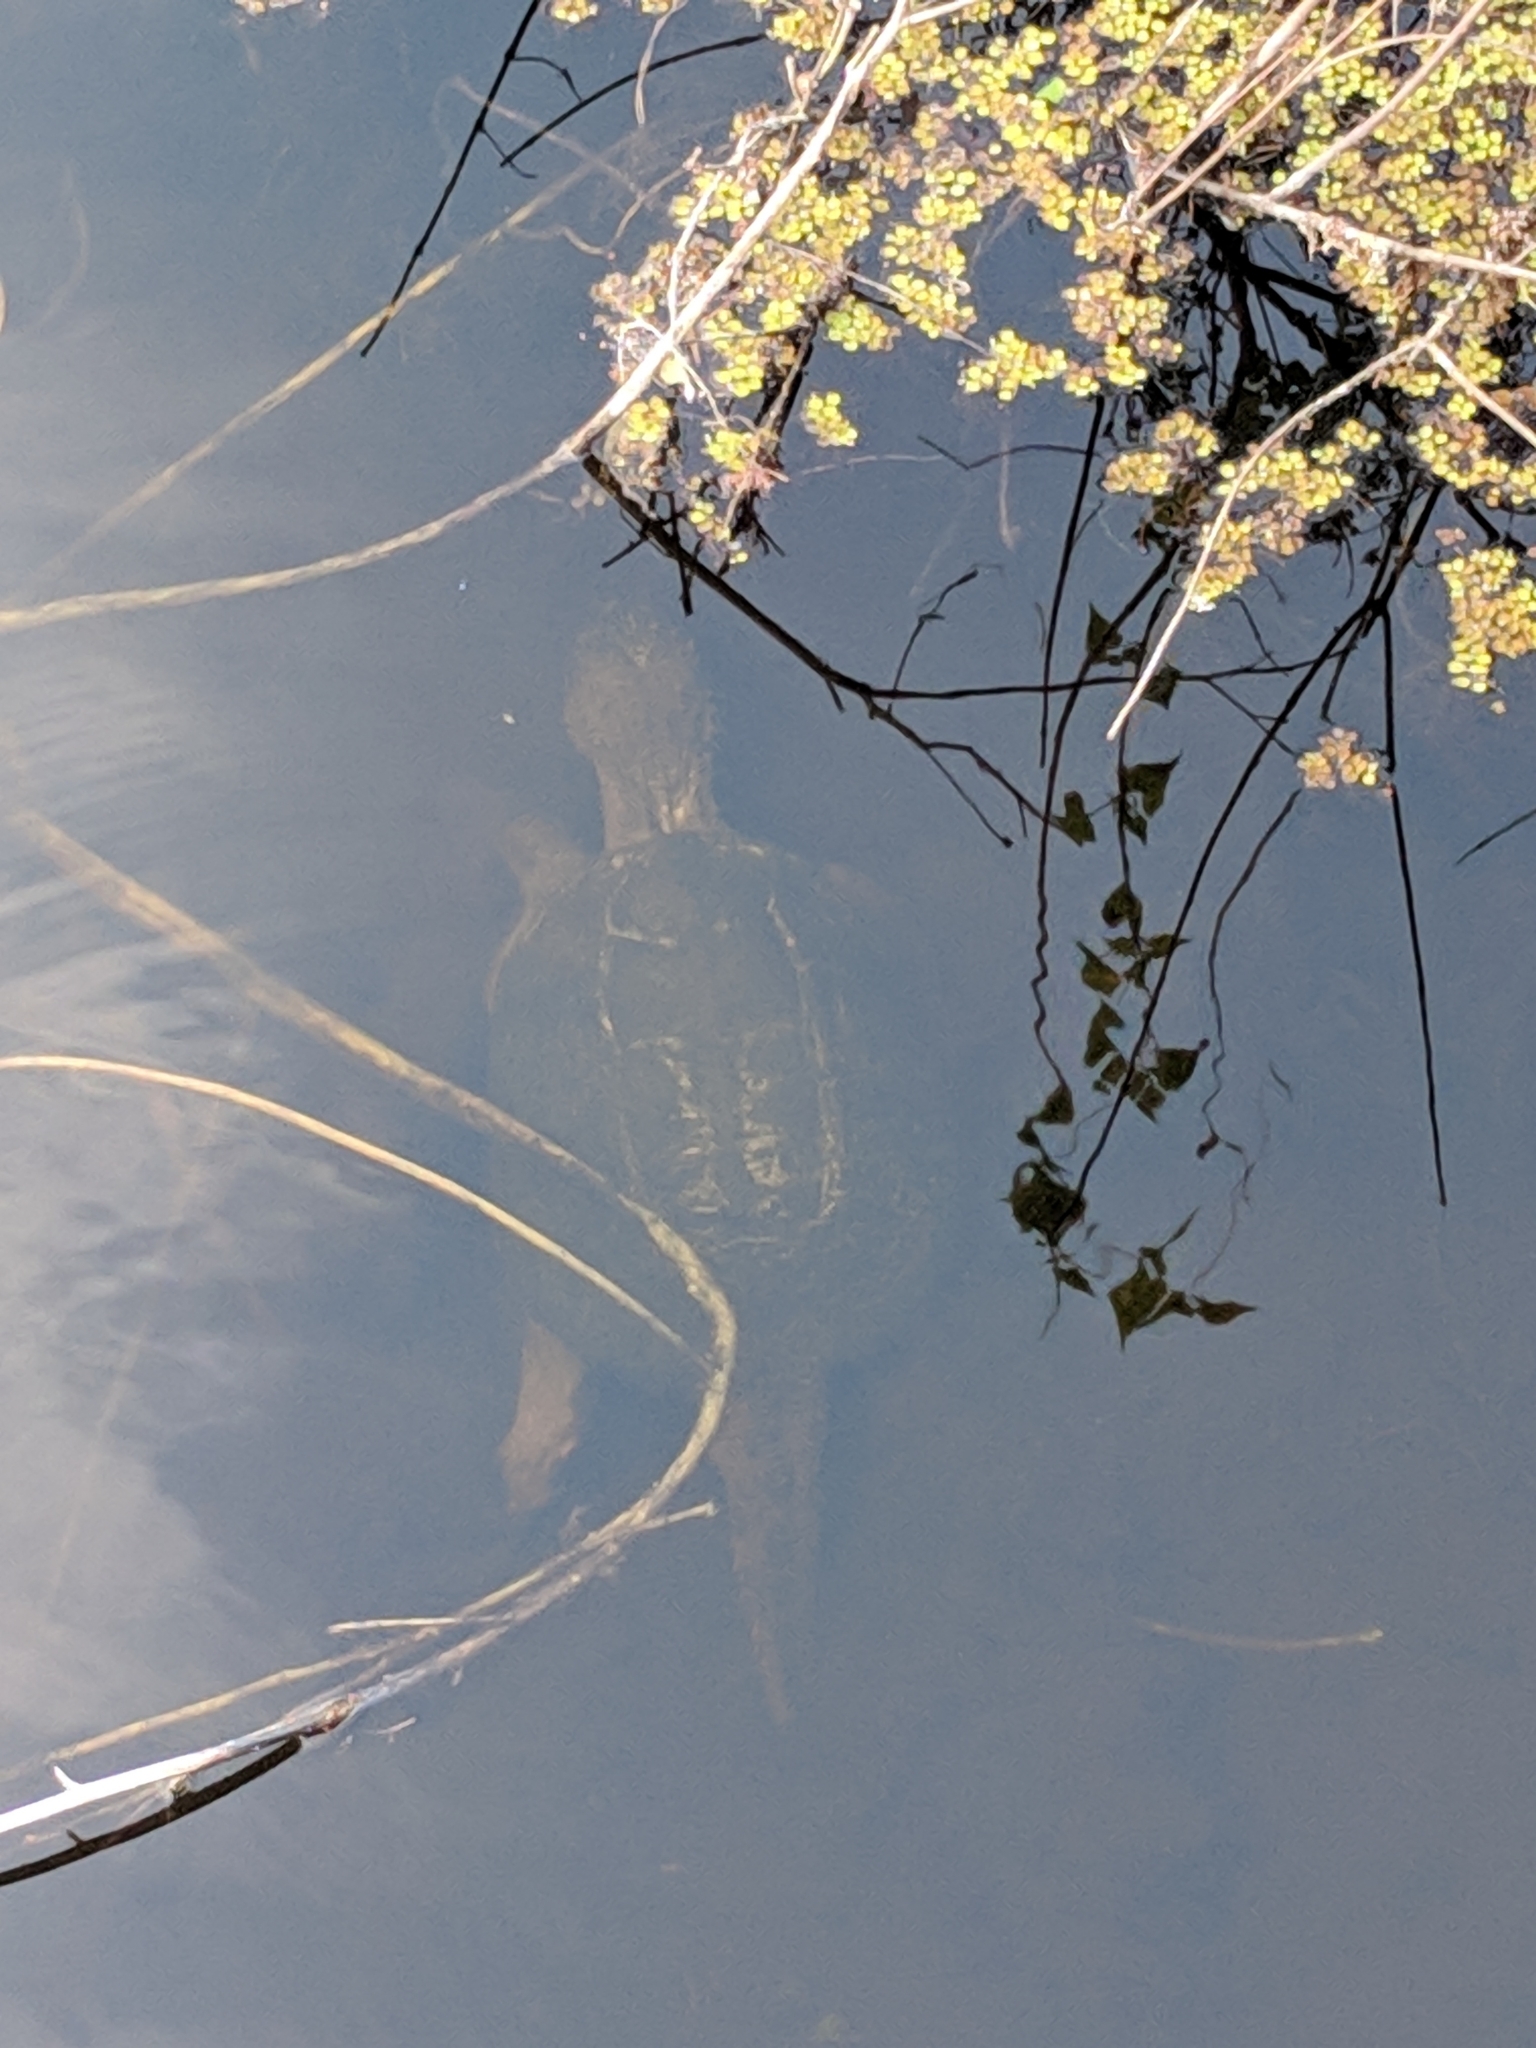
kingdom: Animalia
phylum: Chordata
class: Testudines
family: Chelydridae
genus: Chelydra
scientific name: Chelydra serpentina
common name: Common snapping turtle
